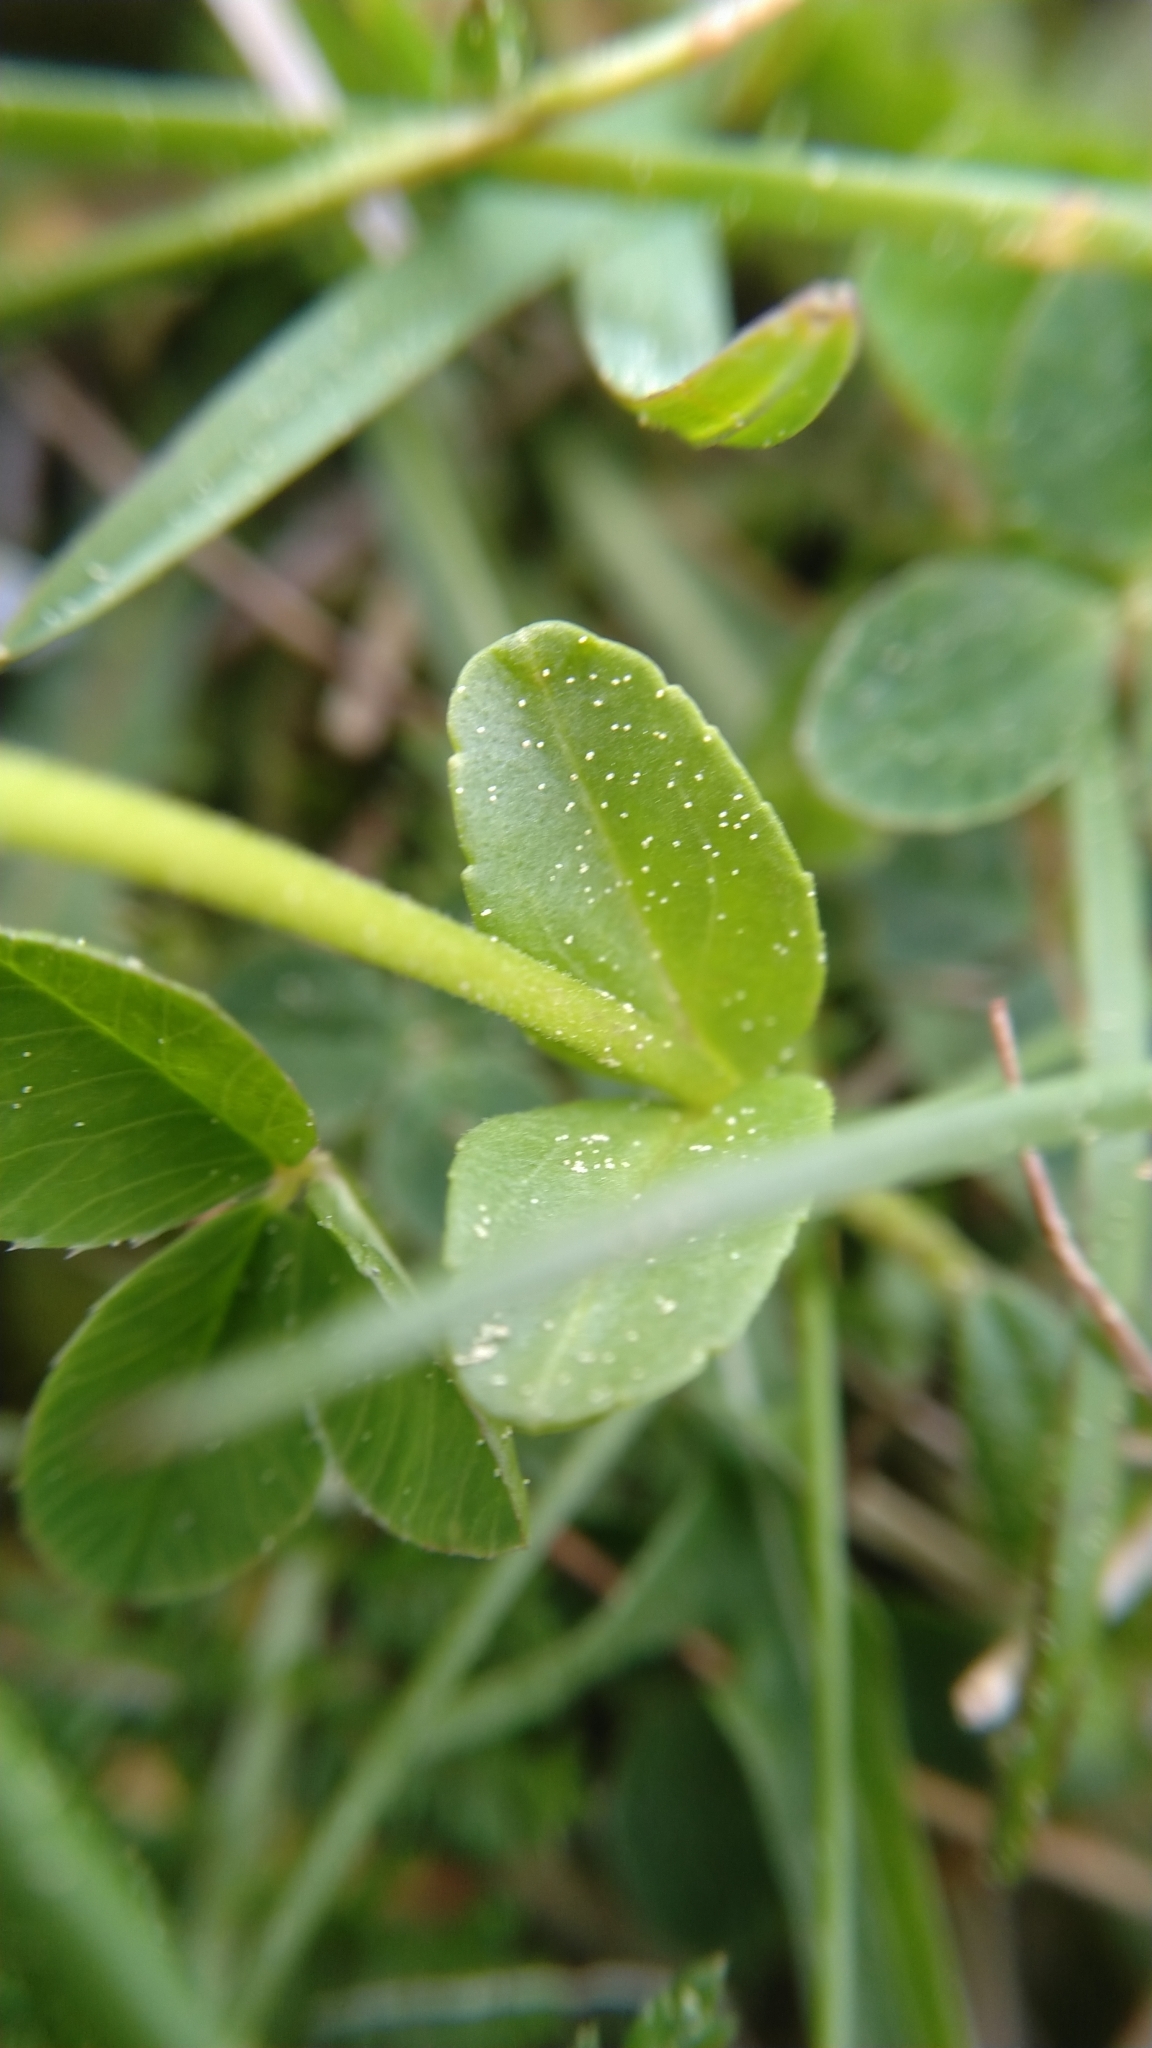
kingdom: Plantae
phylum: Tracheophyta
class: Magnoliopsida
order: Lamiales
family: Plantaginaceae
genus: Veronica
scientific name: Veronica serpyllifolia
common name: Thyme-leaved speedwell
